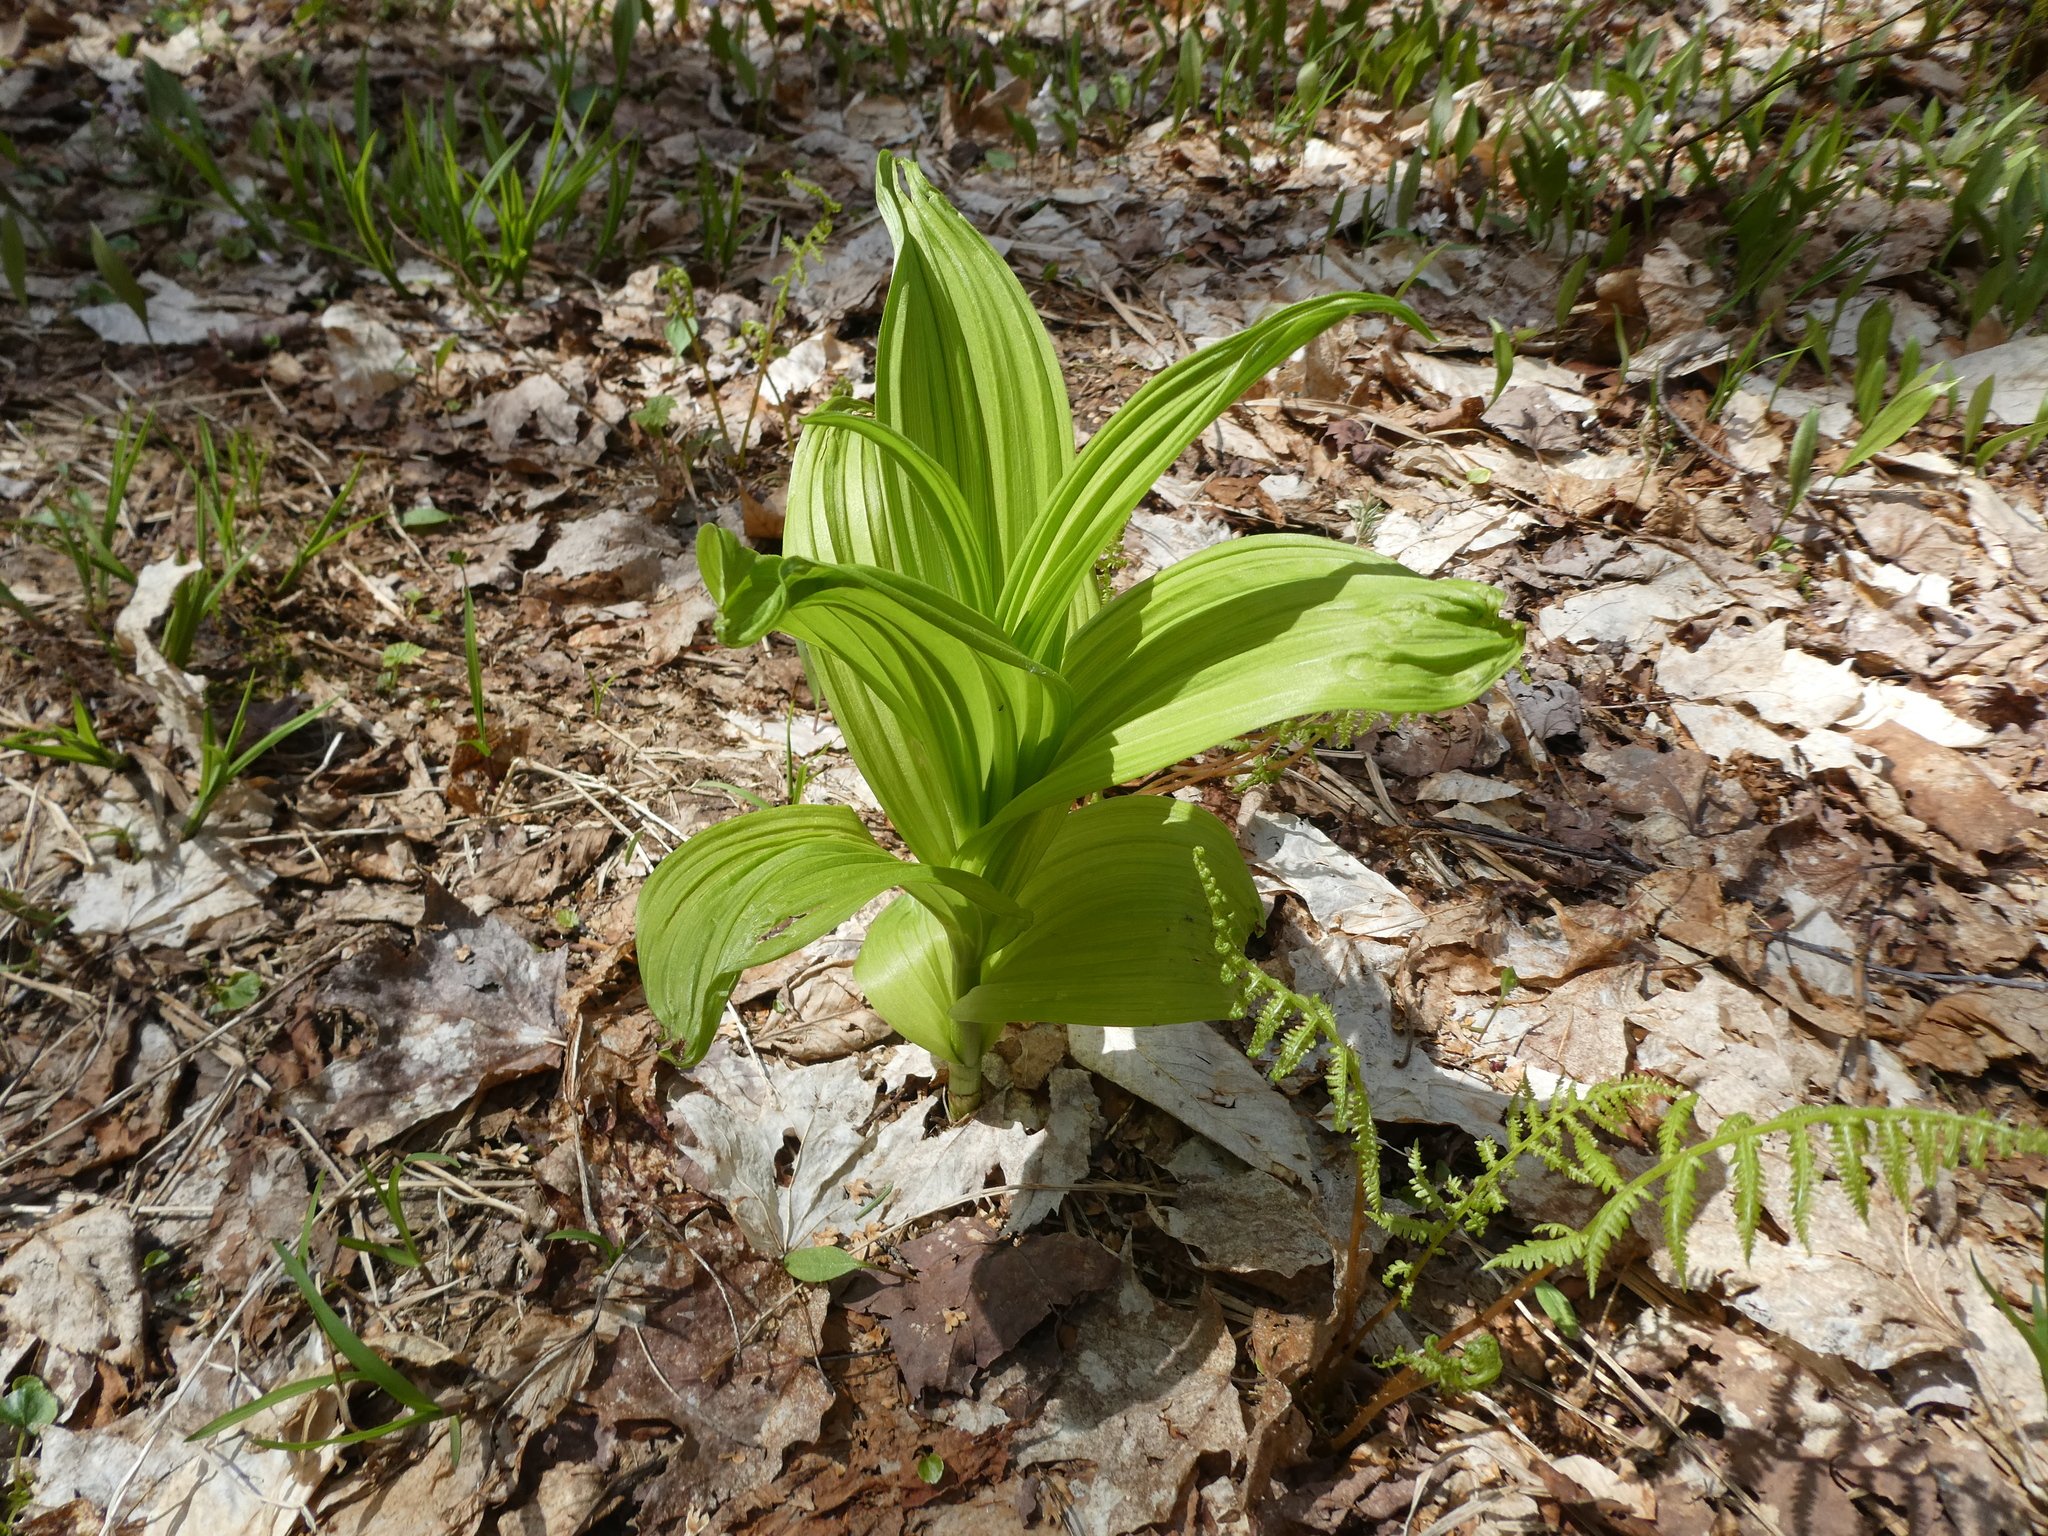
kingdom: Plantae
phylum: Tracheophyta
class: Liliopsida
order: Liliales
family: Melanthiaceae
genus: Veratrum
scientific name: Veratrum viride
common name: American false hellebore
